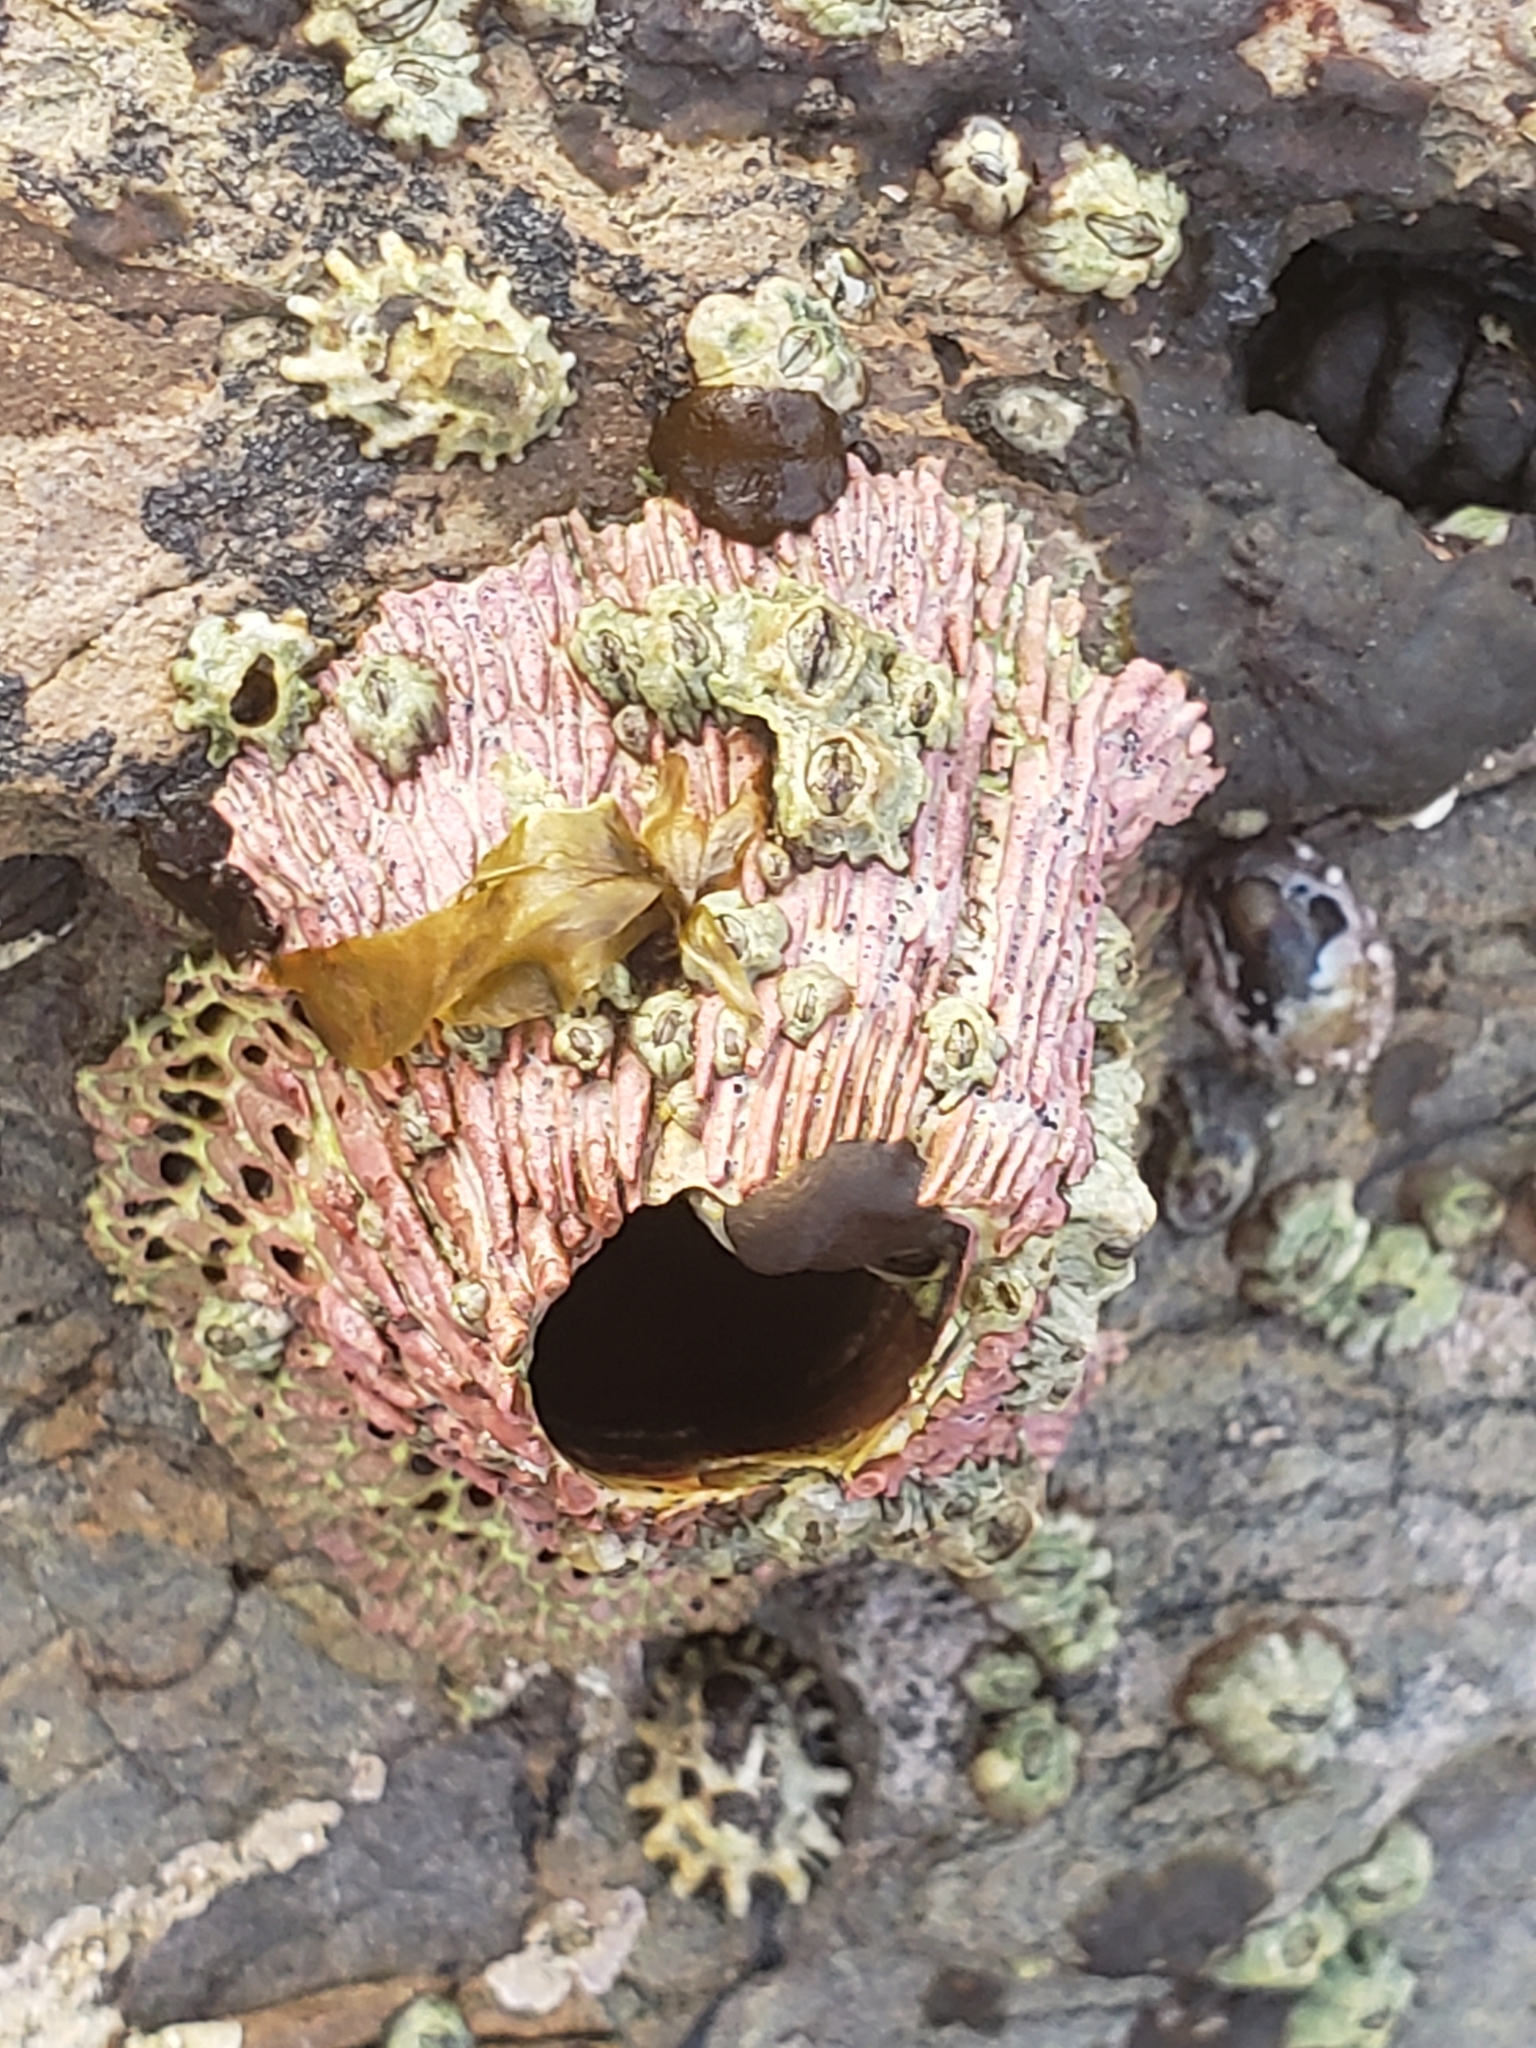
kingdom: Animalia
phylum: Arthropoda
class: Maxillopoda
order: Sessilia
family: Tetraclitidae
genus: Tetraclita
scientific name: Tetraclita rubescens
